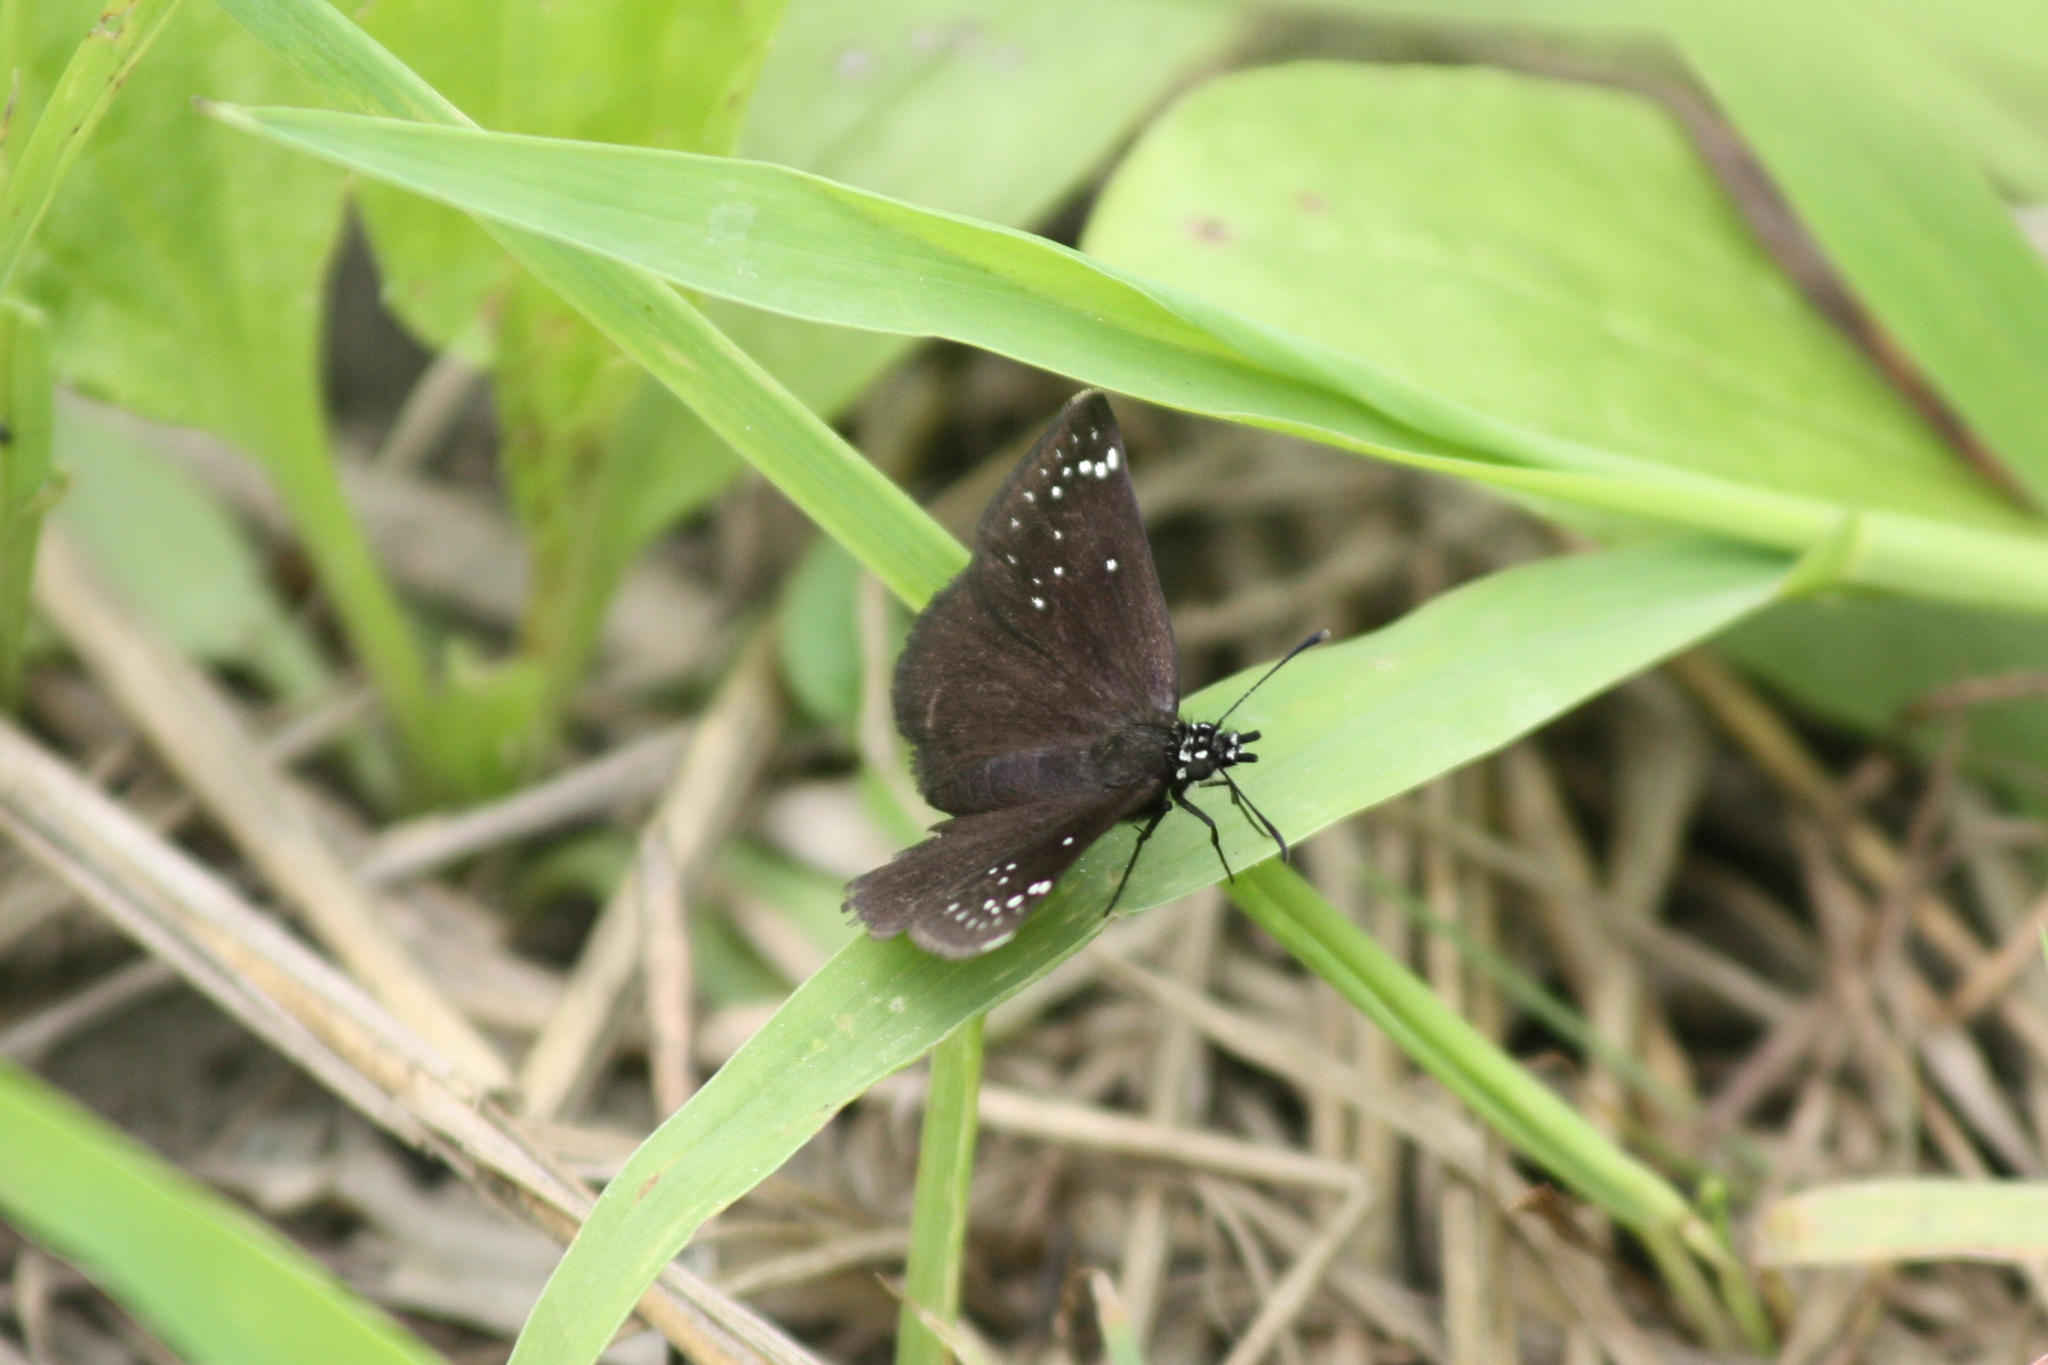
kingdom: Animalia
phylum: Arthropoda
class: Insecta
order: Lepidoptera
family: Hesperiidae
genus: Pholisora
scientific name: Pholisora catullus
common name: Common sootywing
